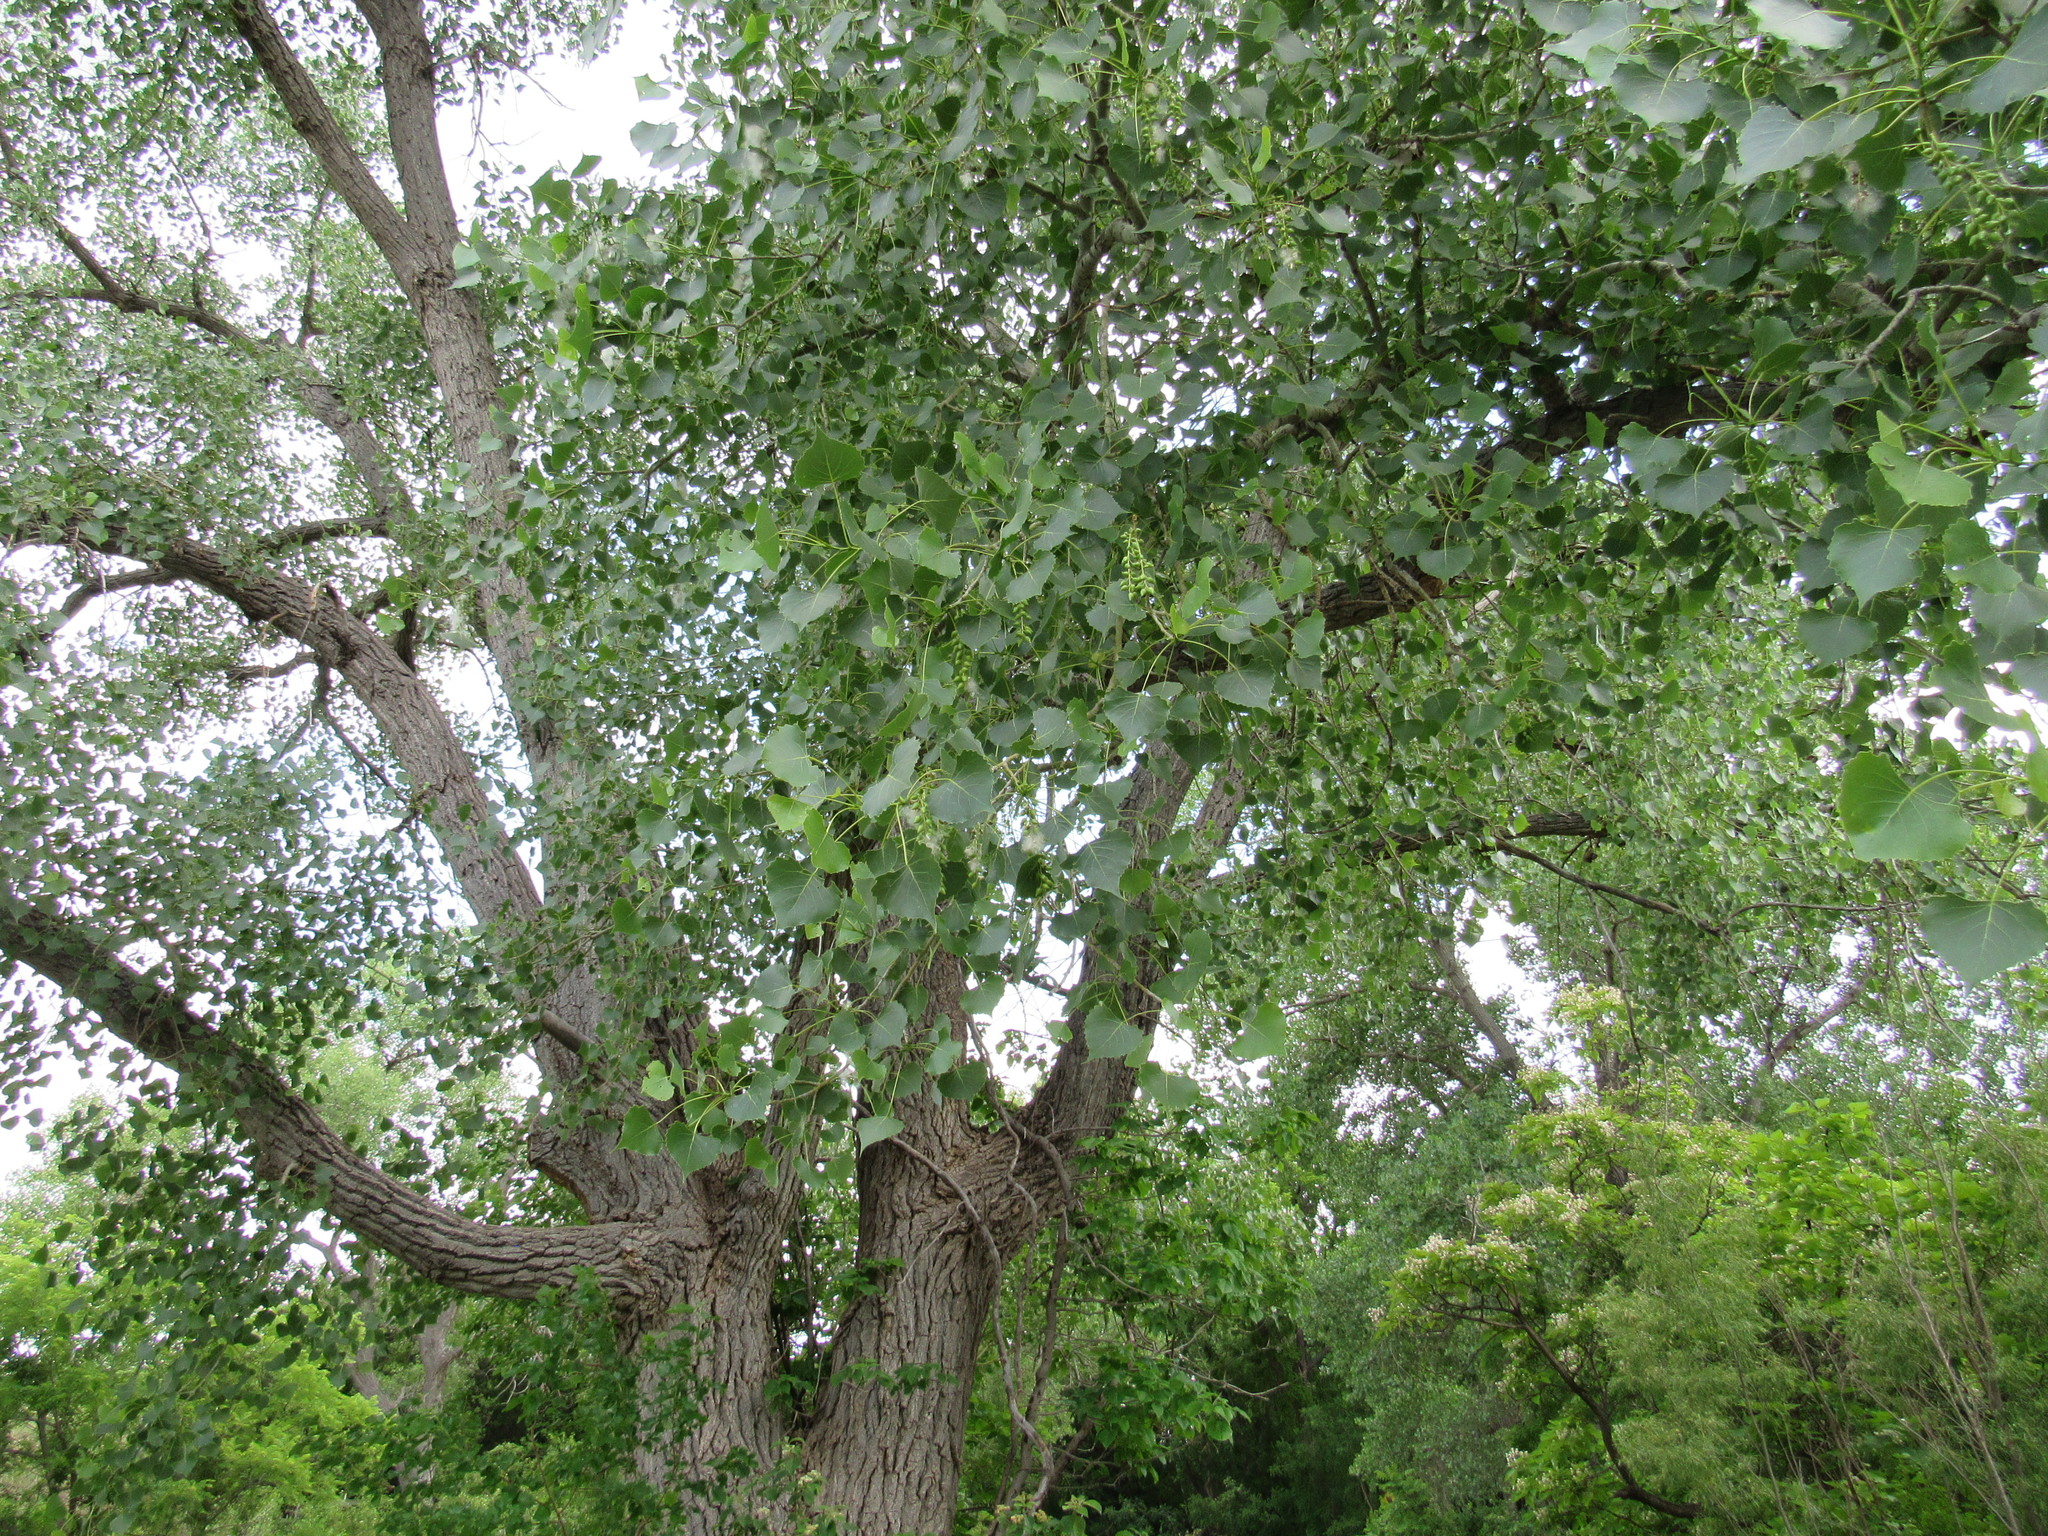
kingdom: Plantae
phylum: Tracheophyta
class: Magnoliopsida
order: Malpighiales
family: Salicaceae
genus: Populus
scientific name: Populus deltoides
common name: Eastern cottonwood
